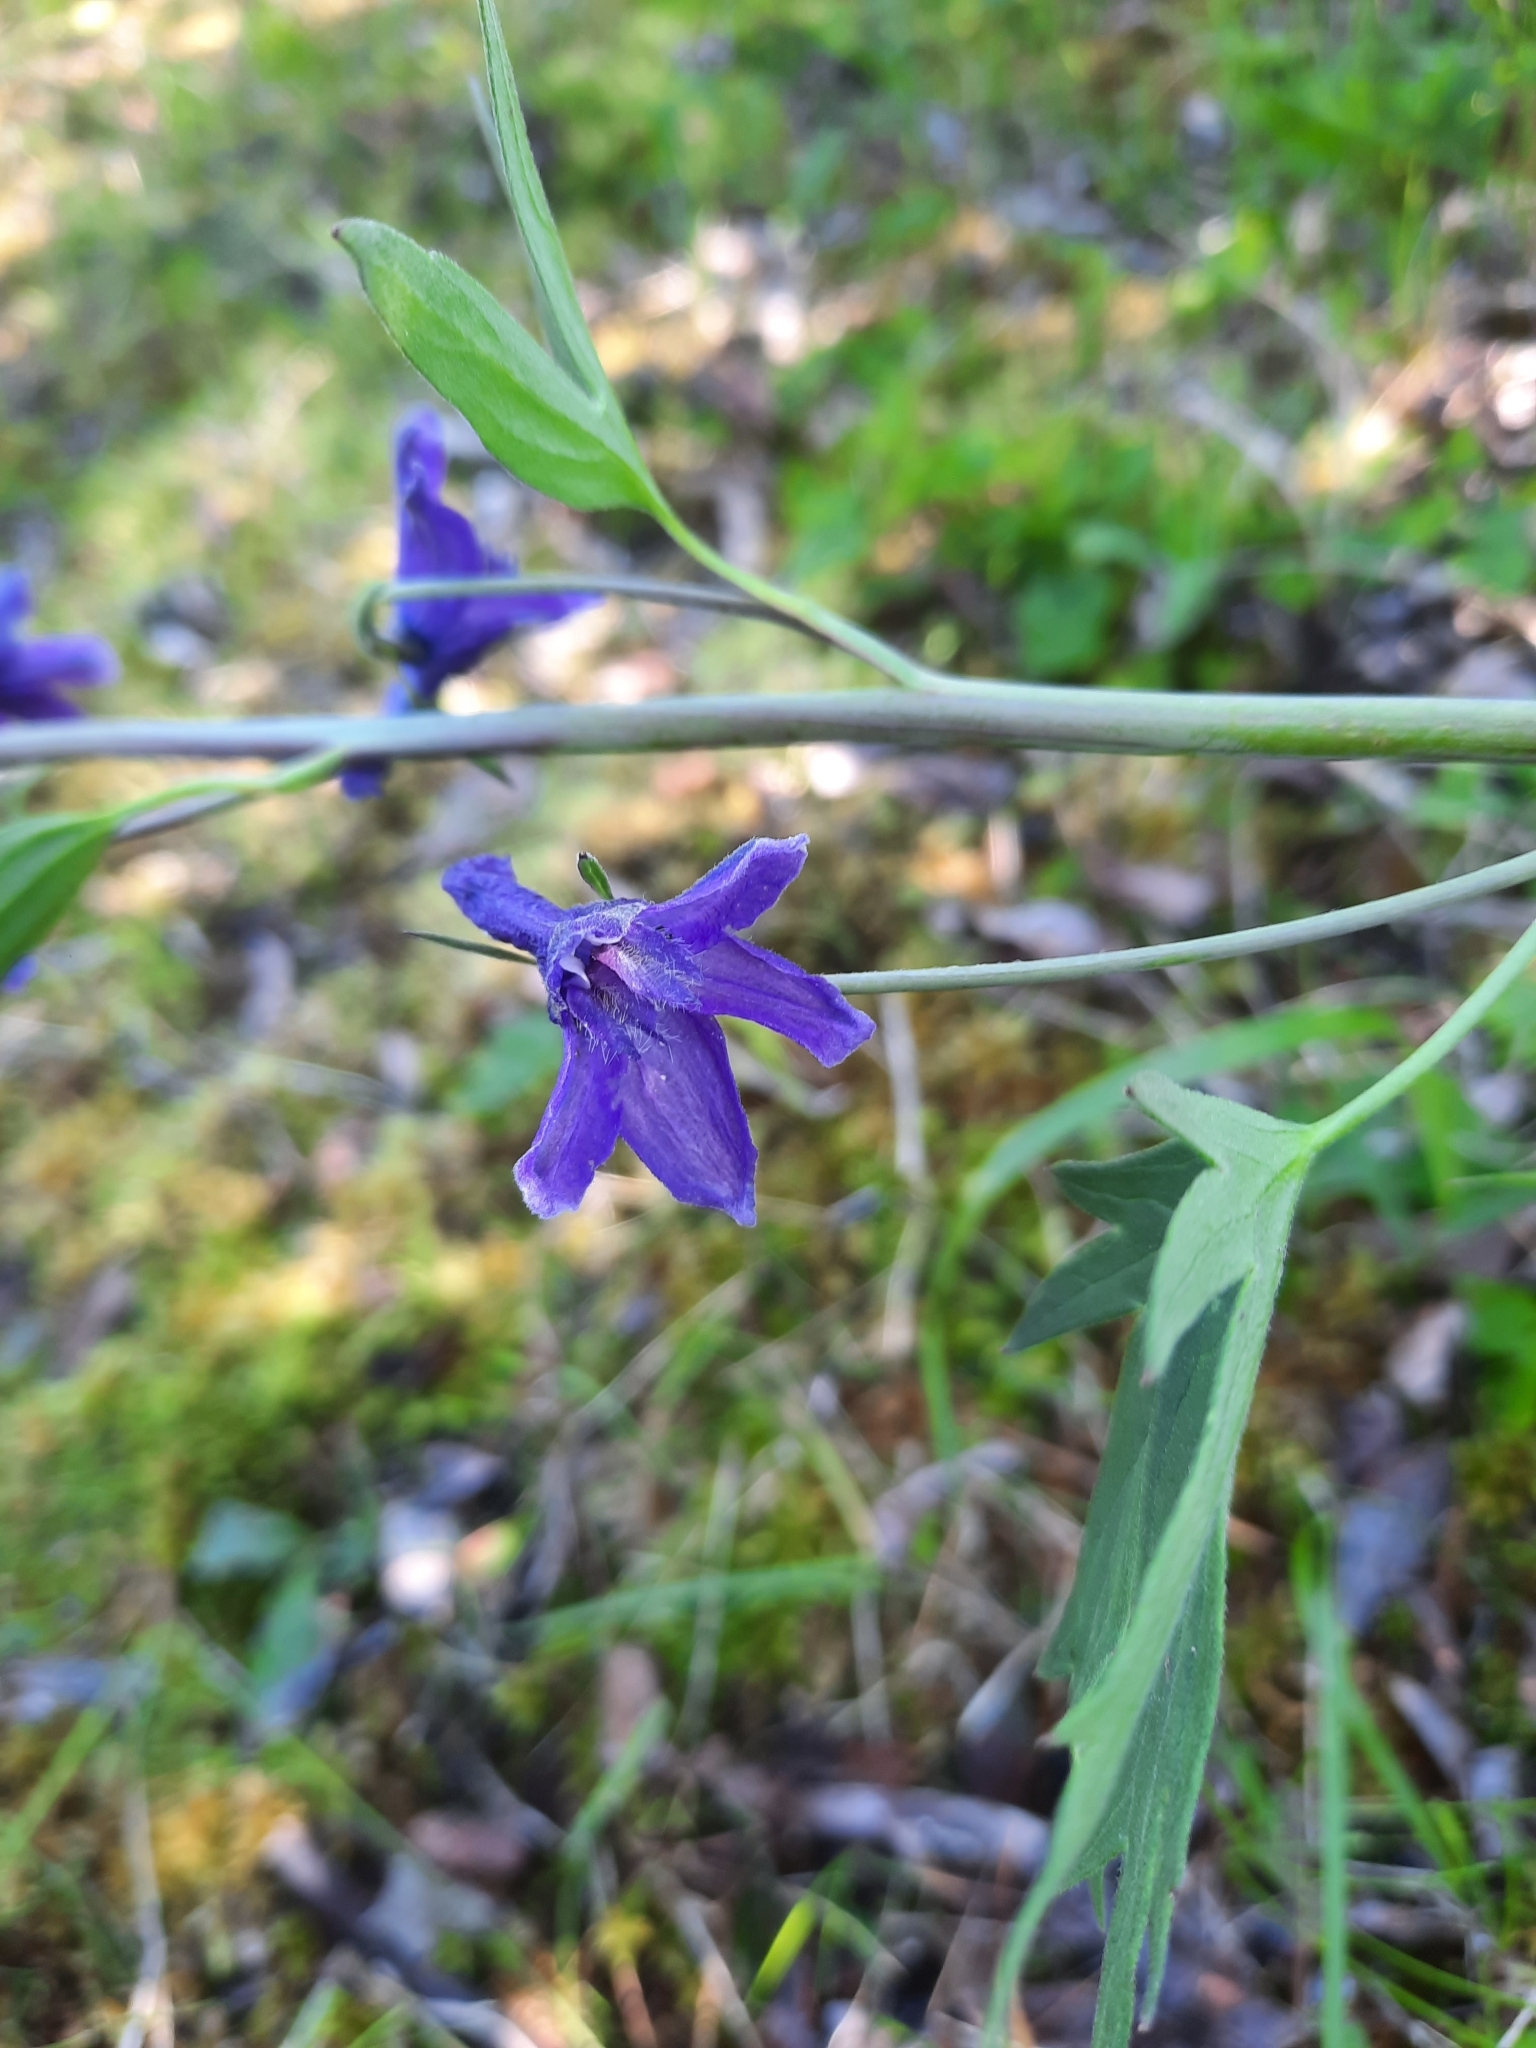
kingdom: Plantae
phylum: Tracheophyta
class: Magnoliopsida
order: Ranunculales
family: Ranunculaceae
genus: Delphinium
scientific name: Delphinium glaucum
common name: Brown's larkspur
